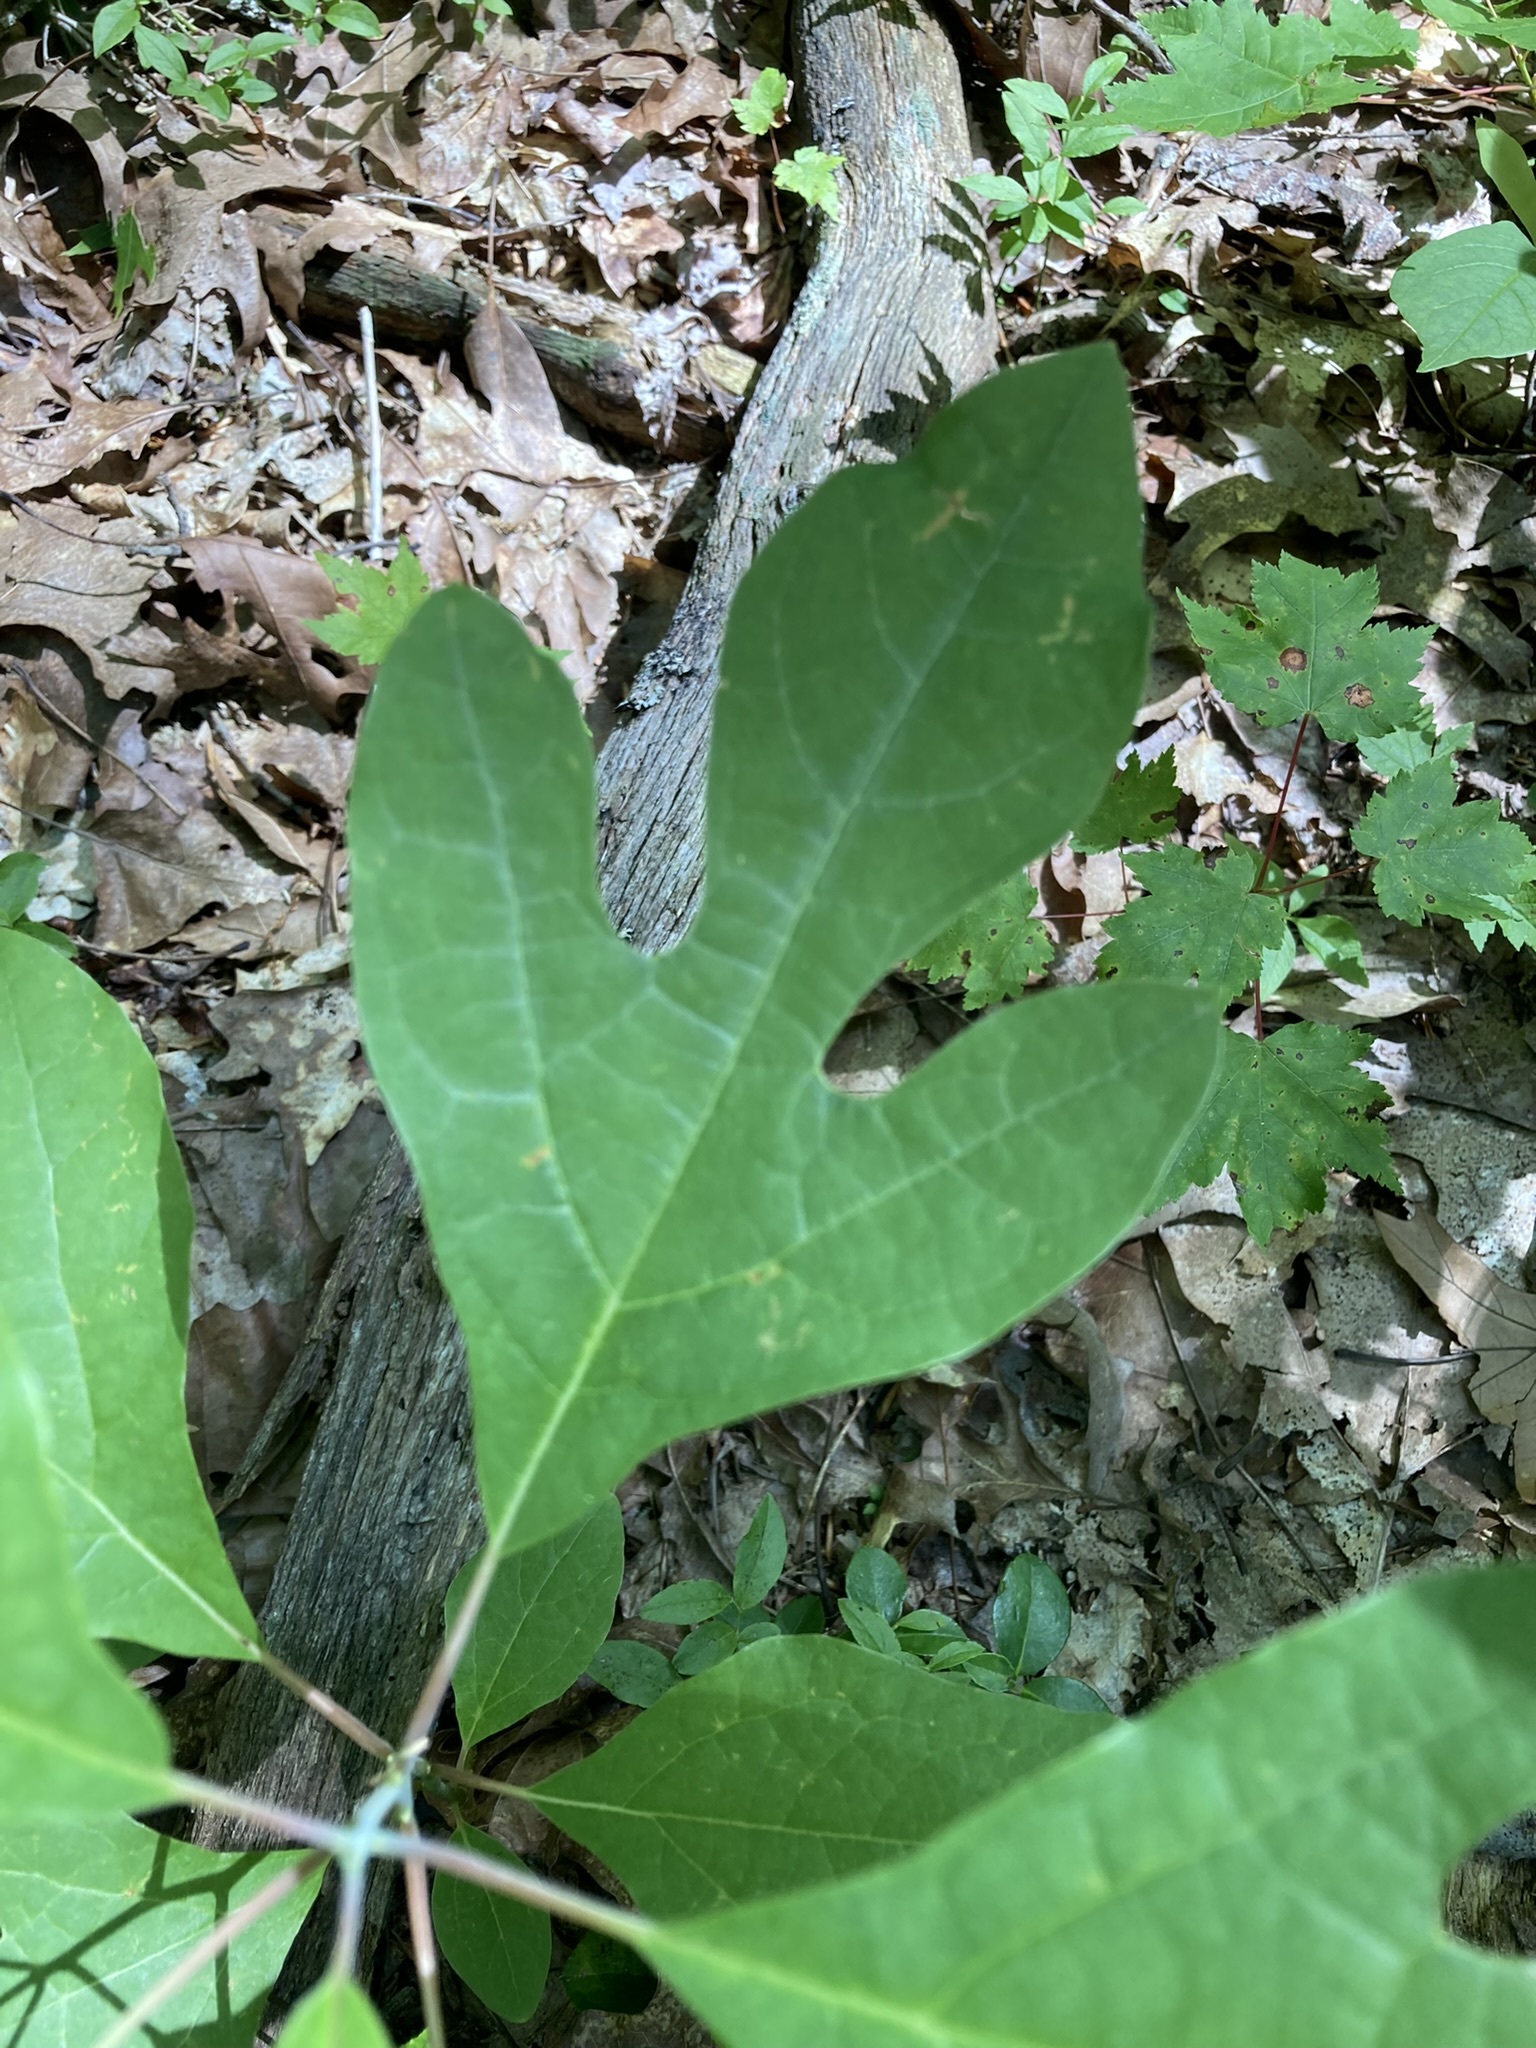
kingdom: Plantae
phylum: Tracheophyta
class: Magnoliopsida
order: Laurales
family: Lauraceae
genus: Sassafras
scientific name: Sassafras albidum
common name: Sassafras
